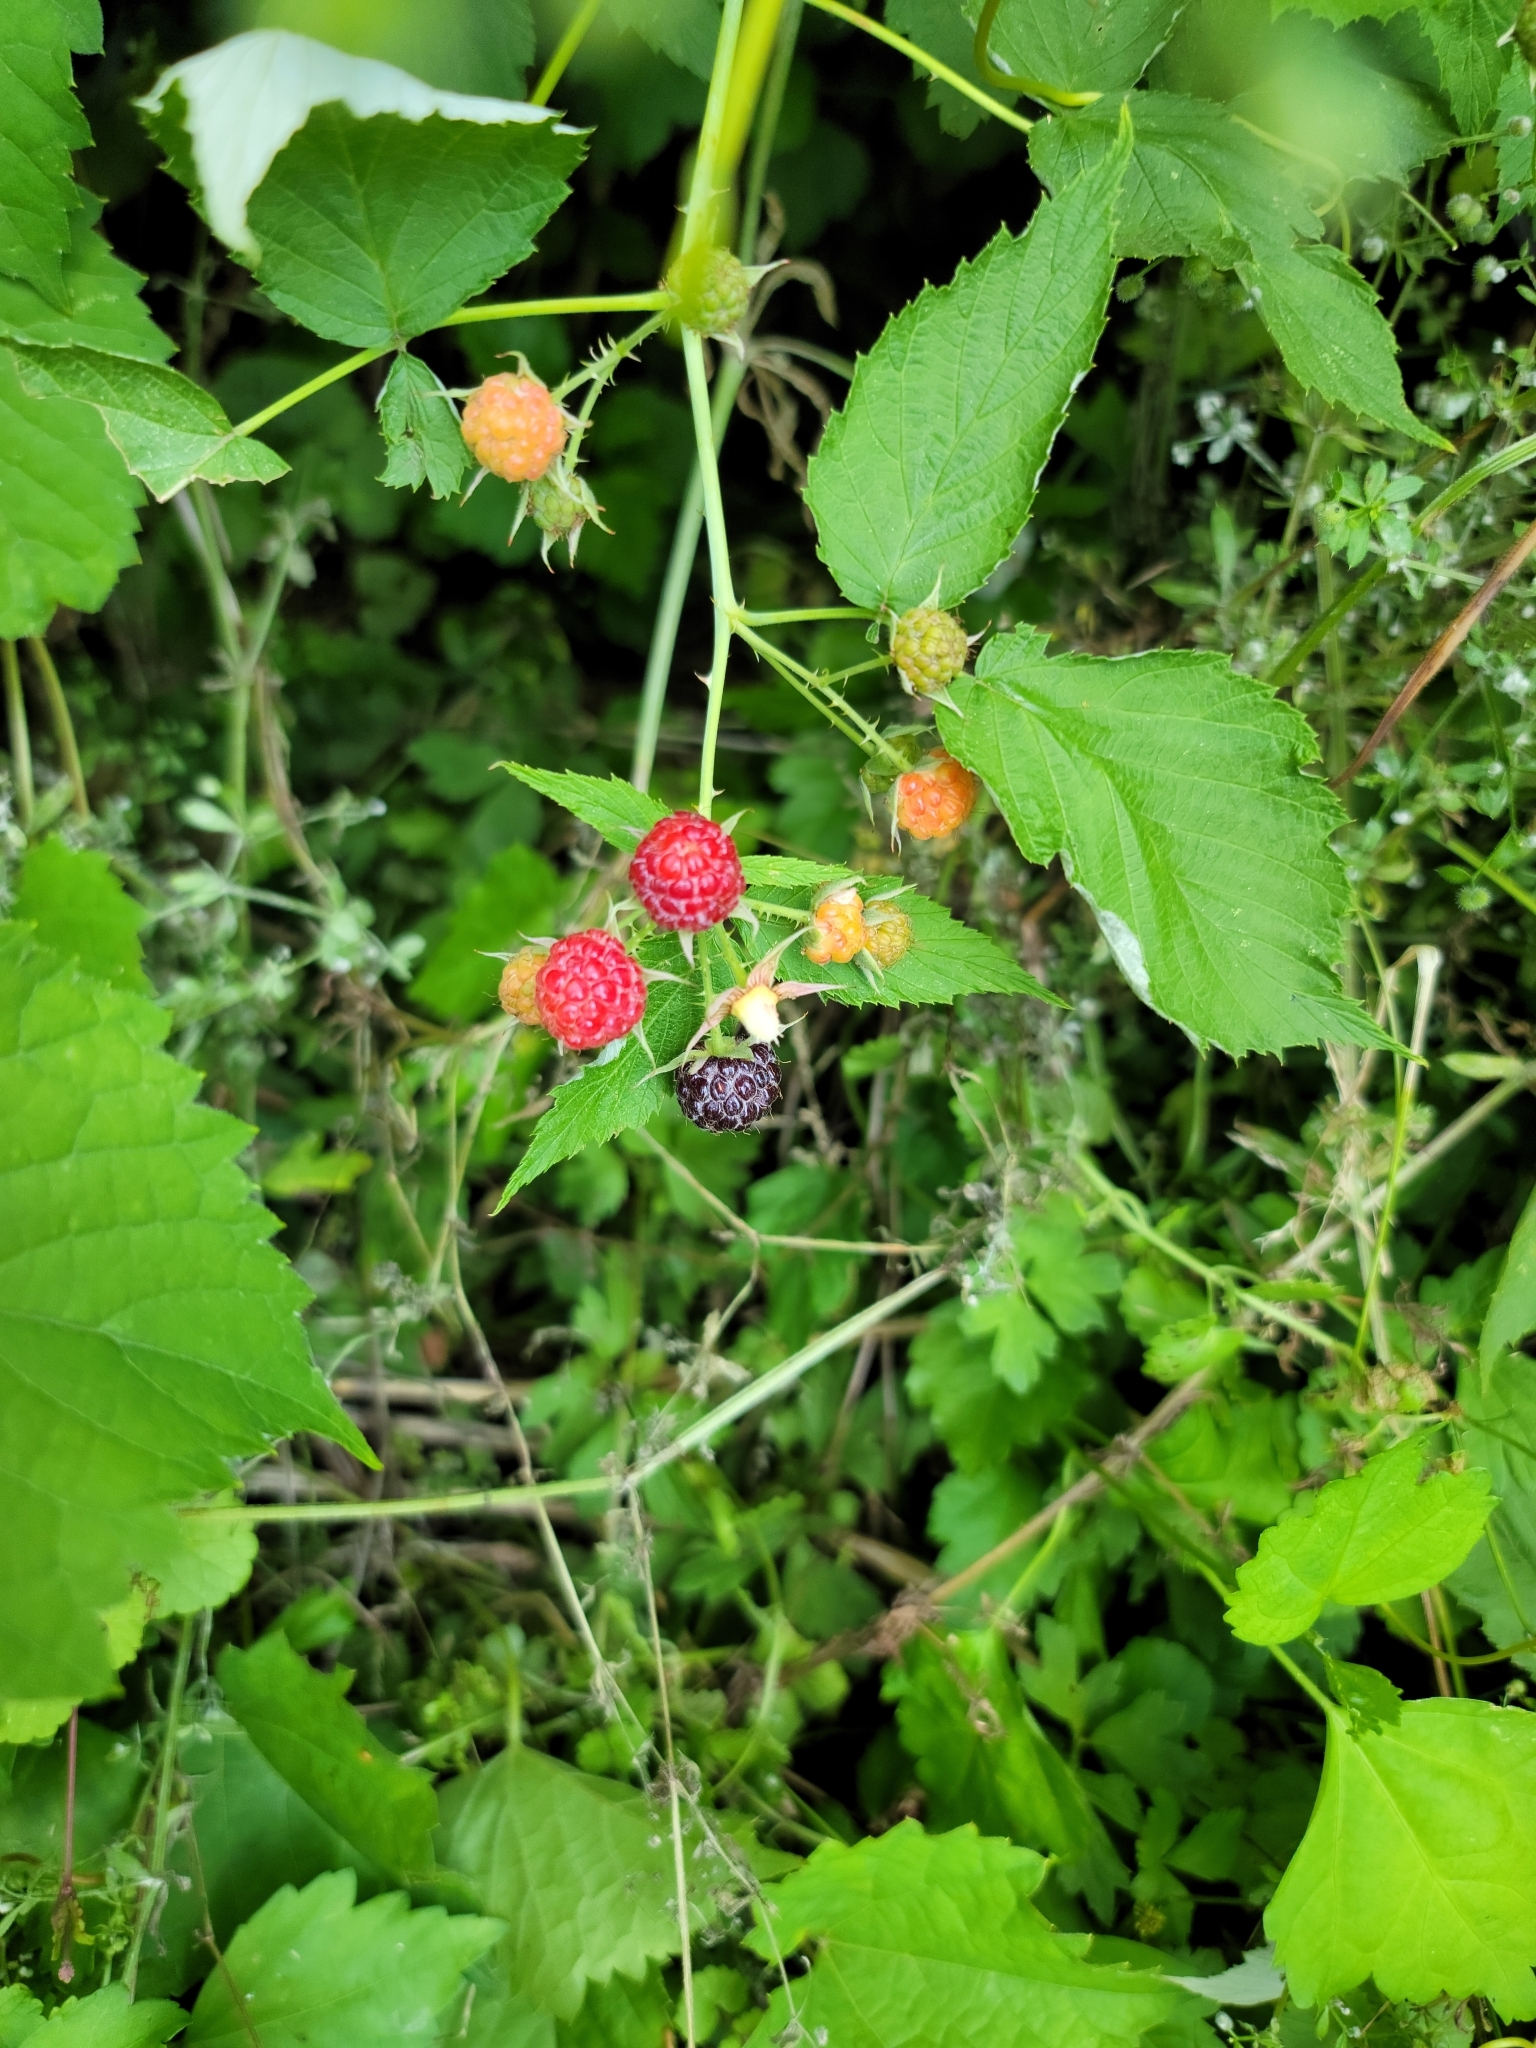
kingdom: Plantae
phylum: Tracheophyta
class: Magnoliopsida
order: Rosales
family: Rosaceae
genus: Rubus
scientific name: Rubus occidentalis
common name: Black raspberry
